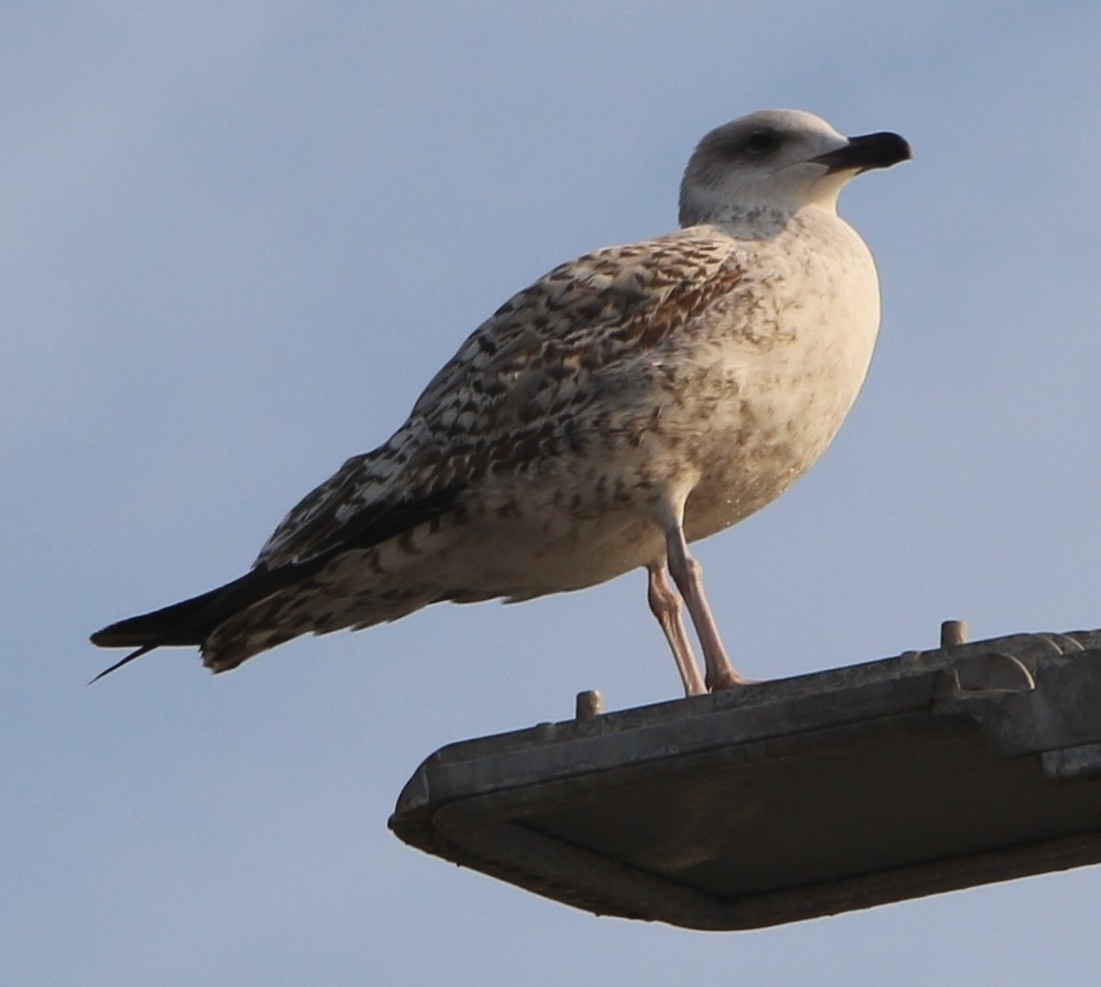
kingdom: Animalia
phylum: Chordata
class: Aves
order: Charadriiformes
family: Laridae
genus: Larus
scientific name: Larus michahellis
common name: Yellow-legged gull
